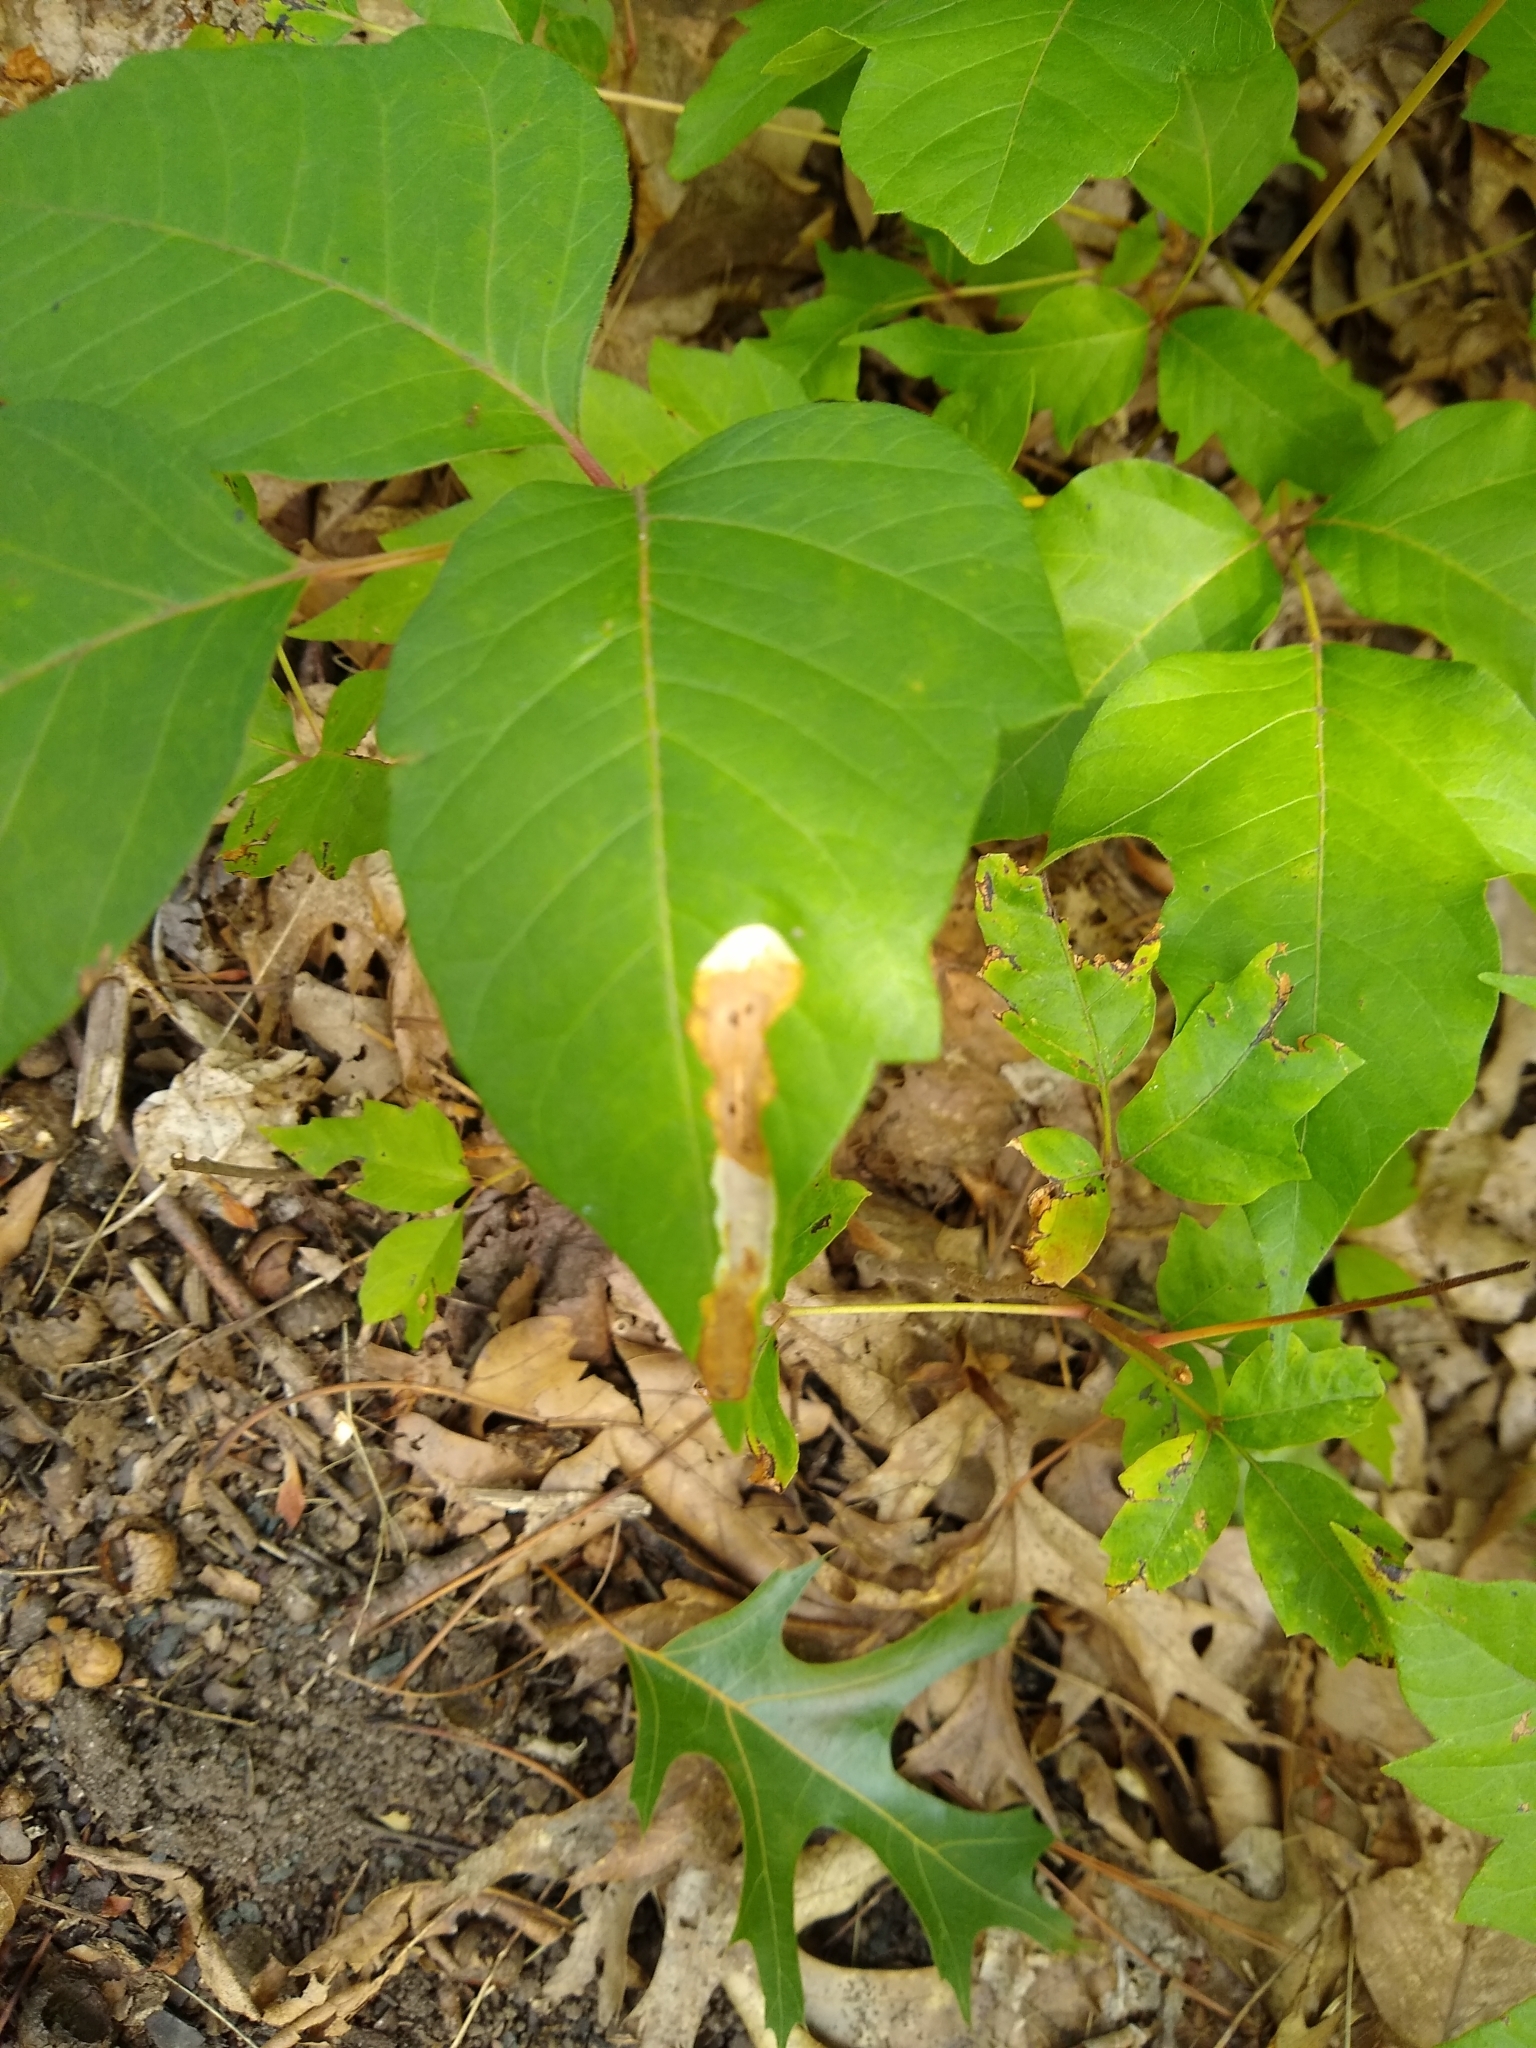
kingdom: Animalia
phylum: Arthropoda
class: Insecta
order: Lepidoptera
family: Gracillariidae
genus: Cameraria
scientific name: Cameraria guttifinitella
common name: Poison ivy leaf-miner moth
